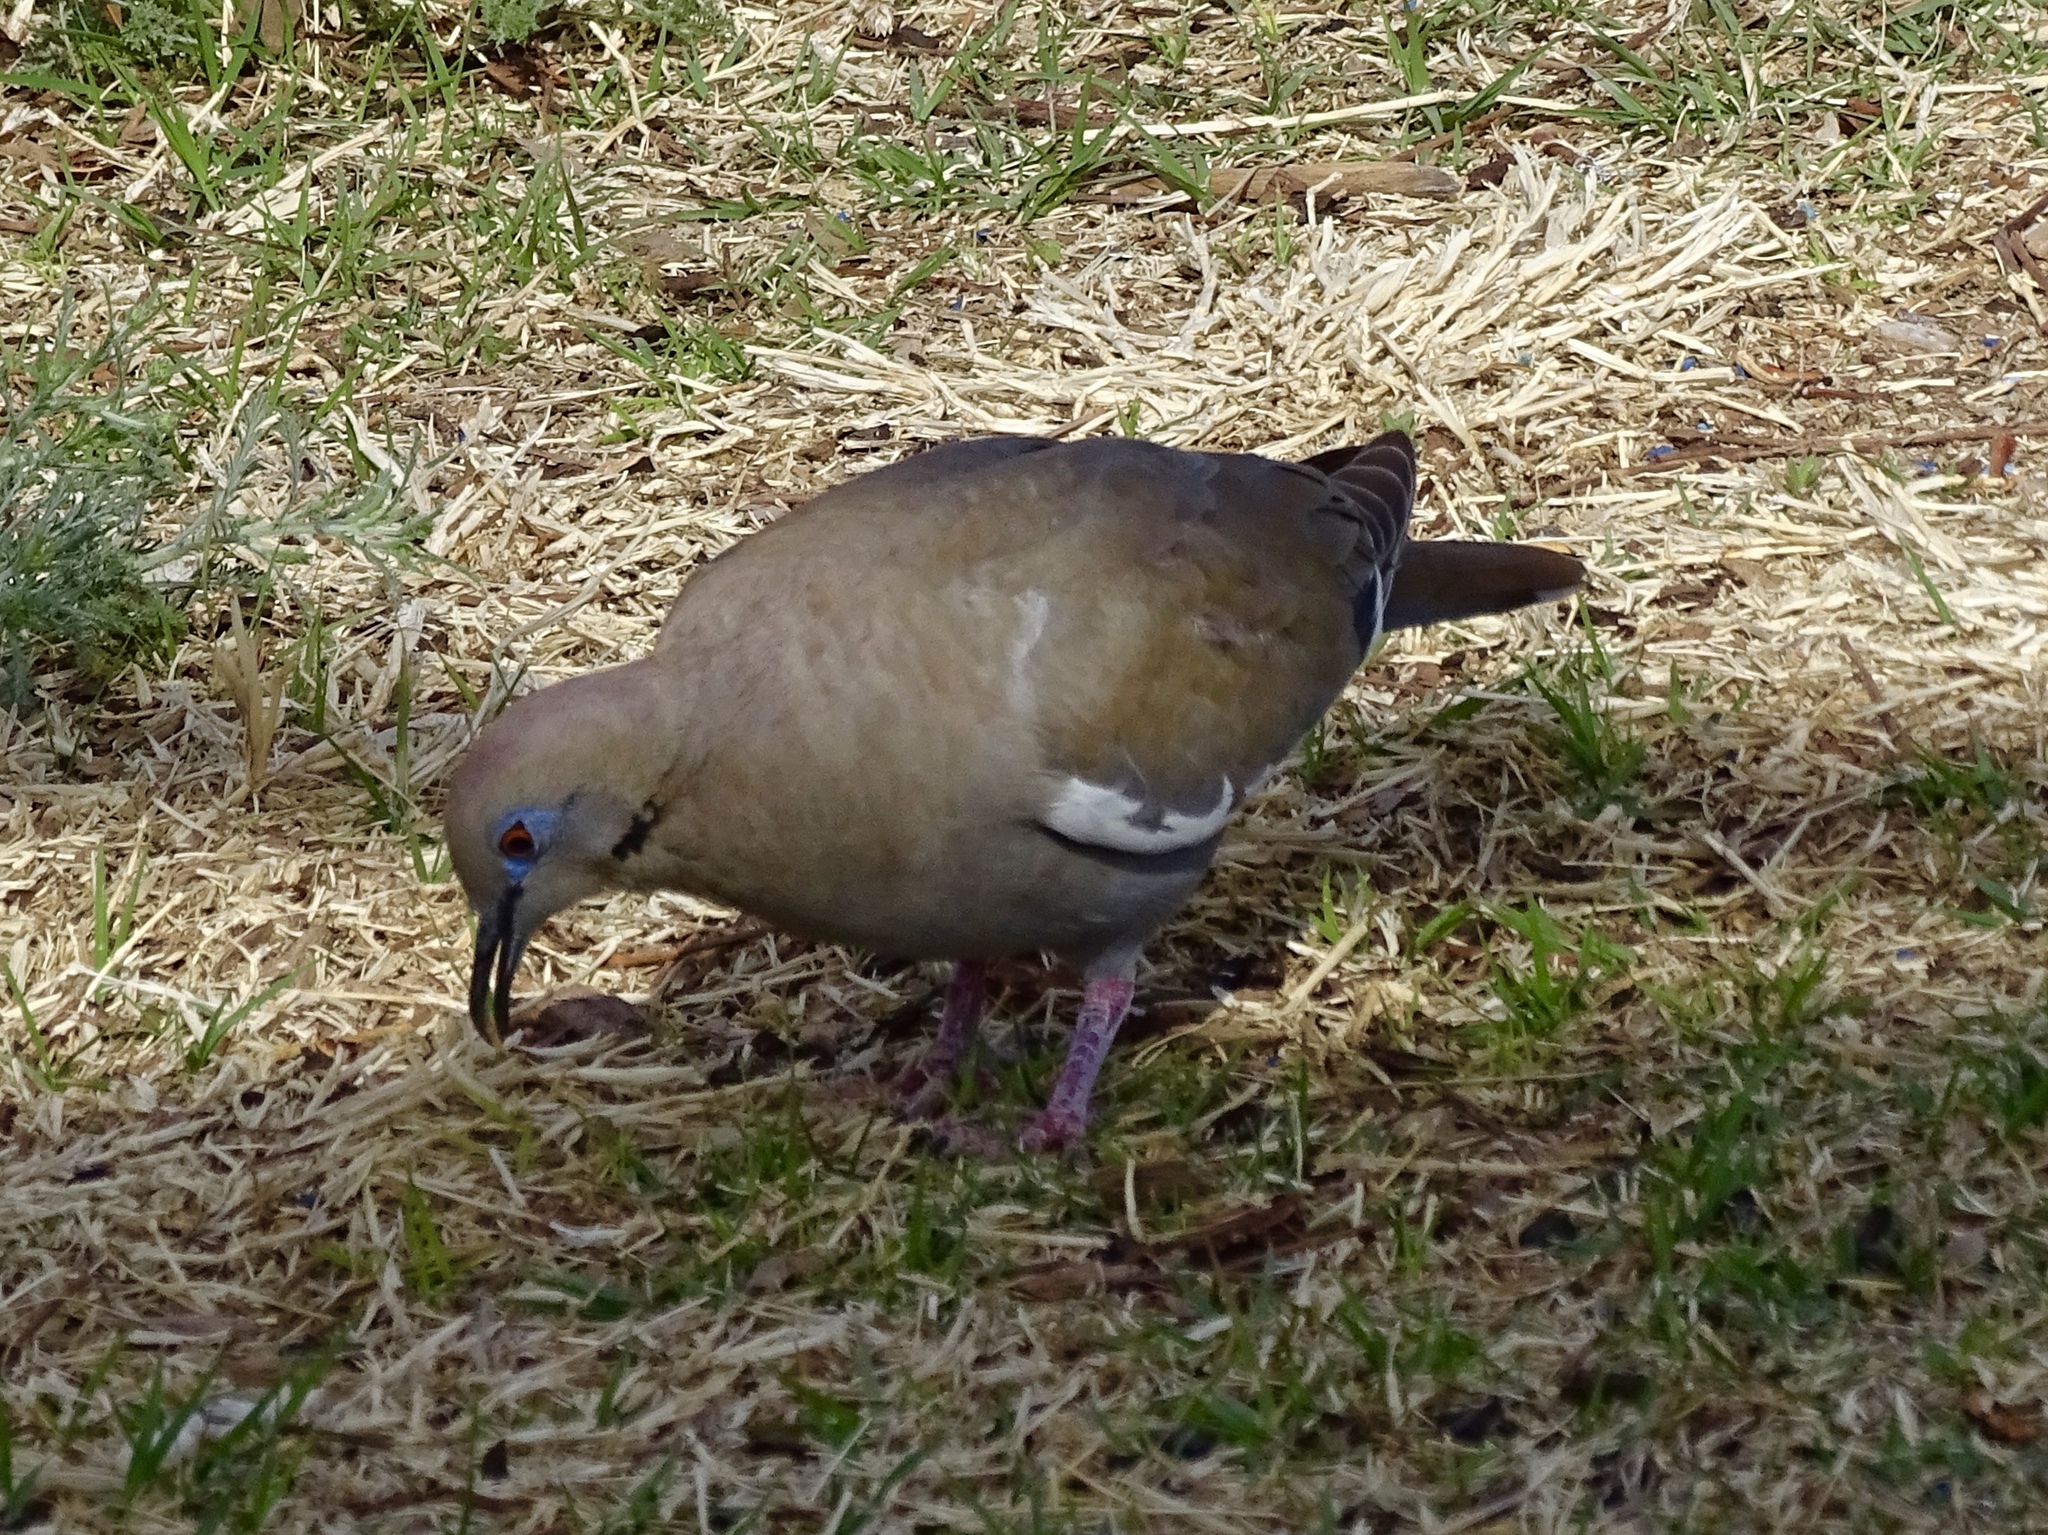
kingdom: Animalia
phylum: Chordata
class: Aves
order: Columbiformes
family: Columbidae
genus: Zenaida
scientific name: Zenaida asiatica
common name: White-winged dove
